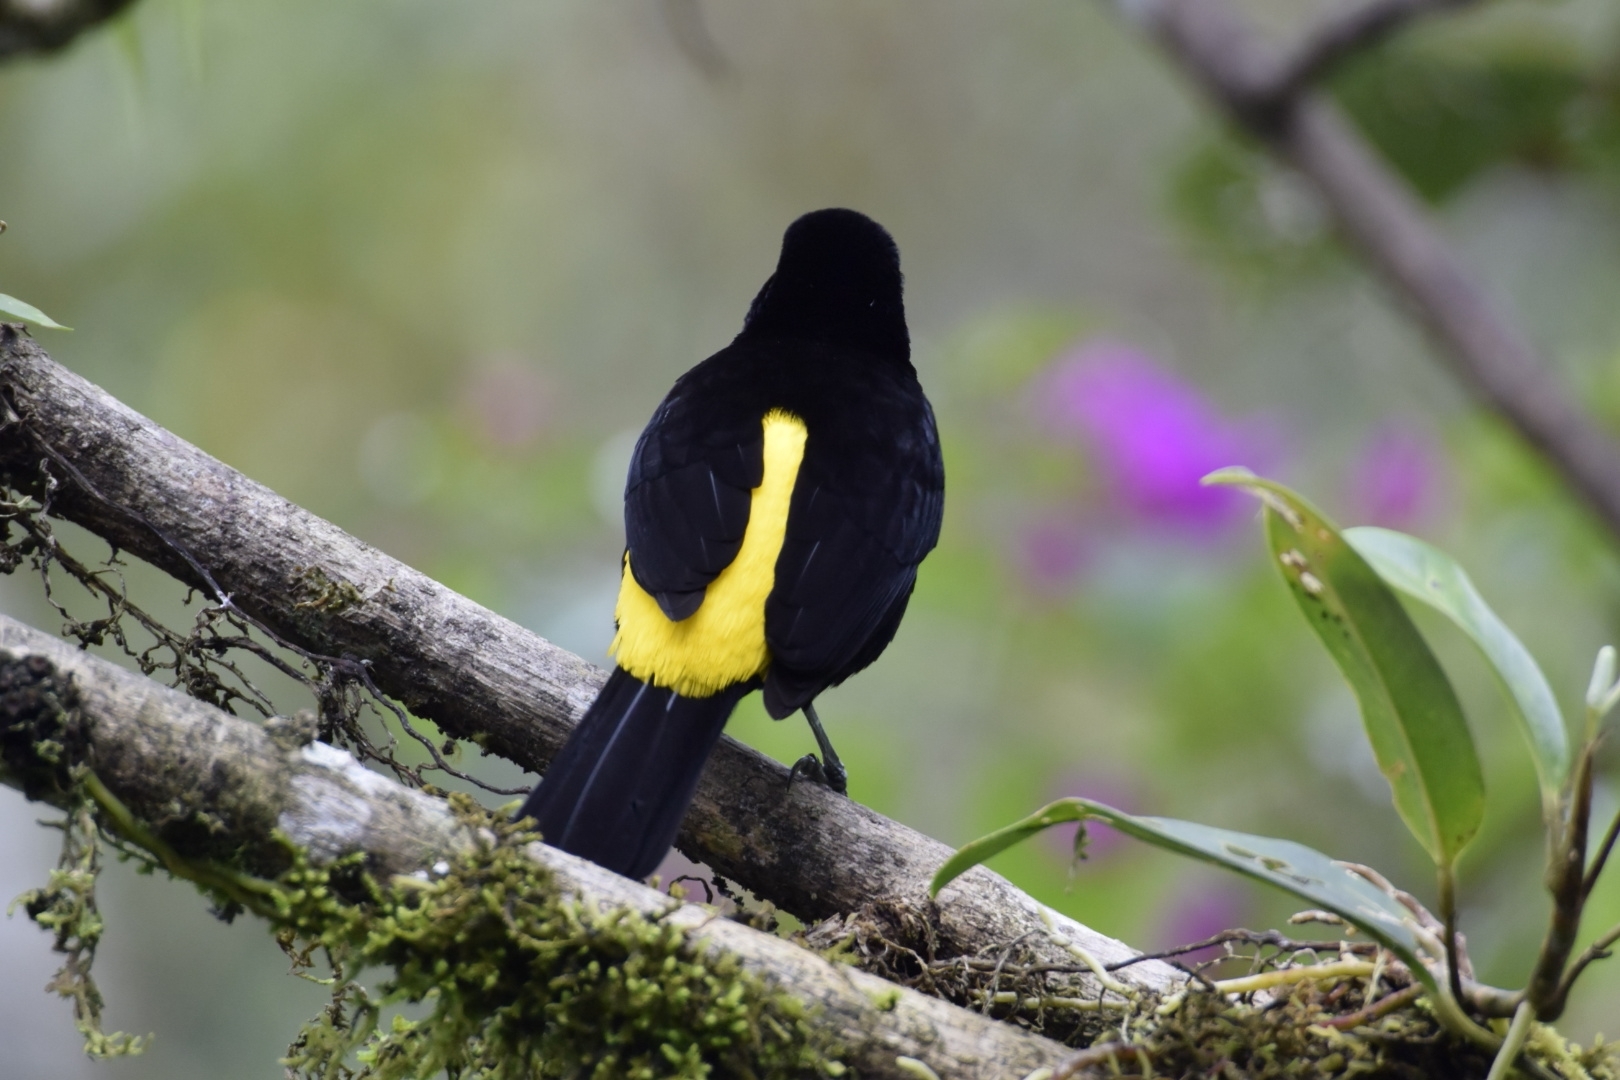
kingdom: Animalia
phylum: Chordata
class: Aves
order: Passeriformes
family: Thraupidae
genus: Ramphocelus
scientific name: Ramphocelus icteronotus
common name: Lemon-rumped tanager
